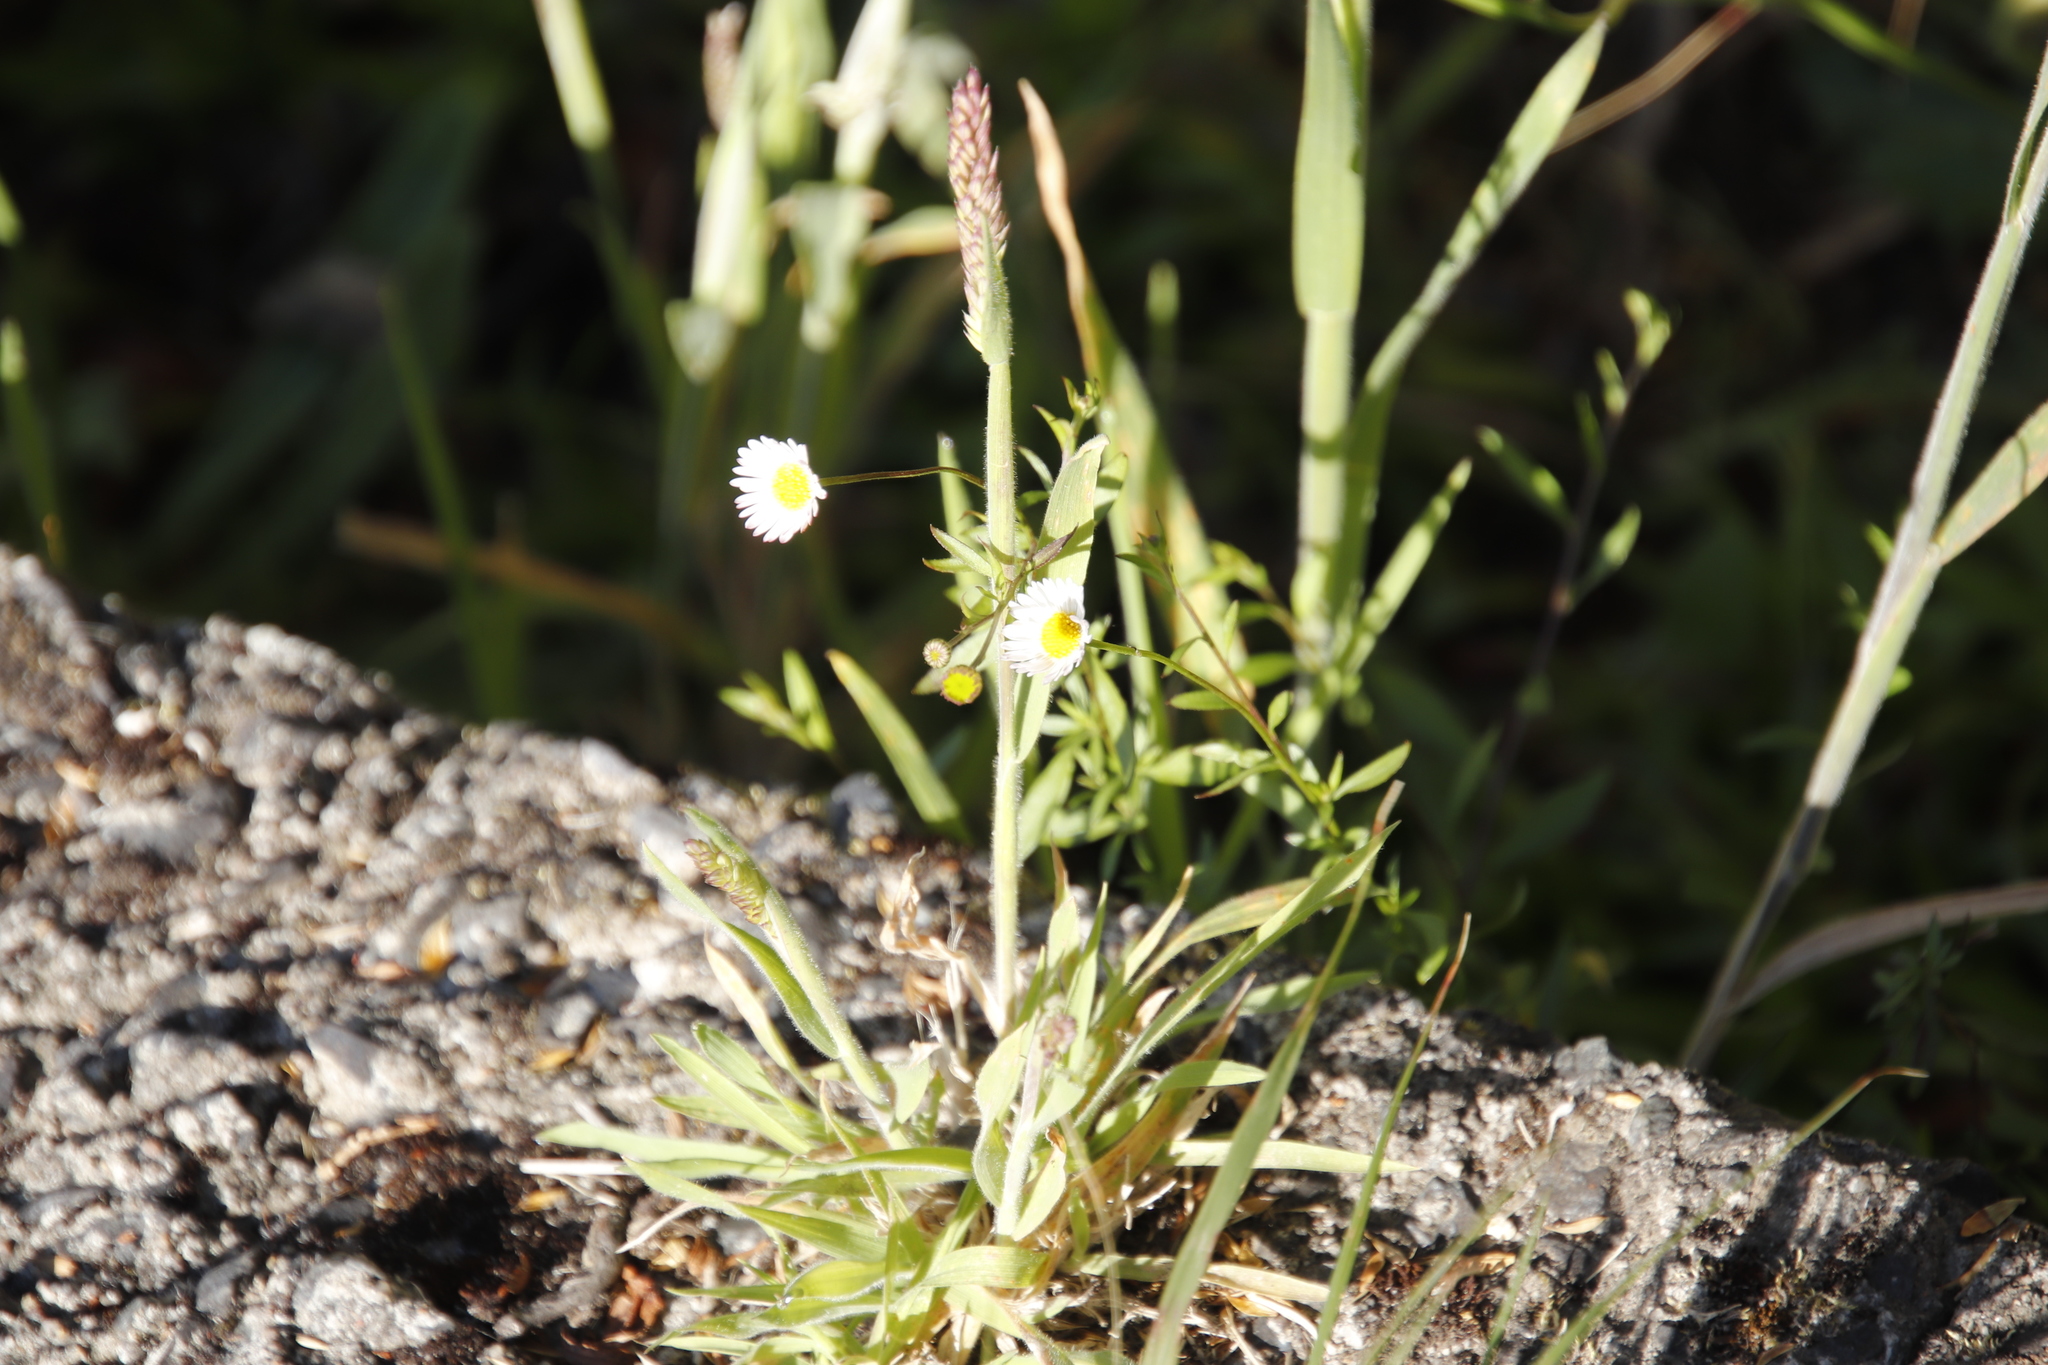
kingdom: Plantae
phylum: Tracheophyta
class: Magnoliopsida
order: Asterales
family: Asteraceae
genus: Erigeron
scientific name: Erigeron karvinskianus
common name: Mexican fleabane
